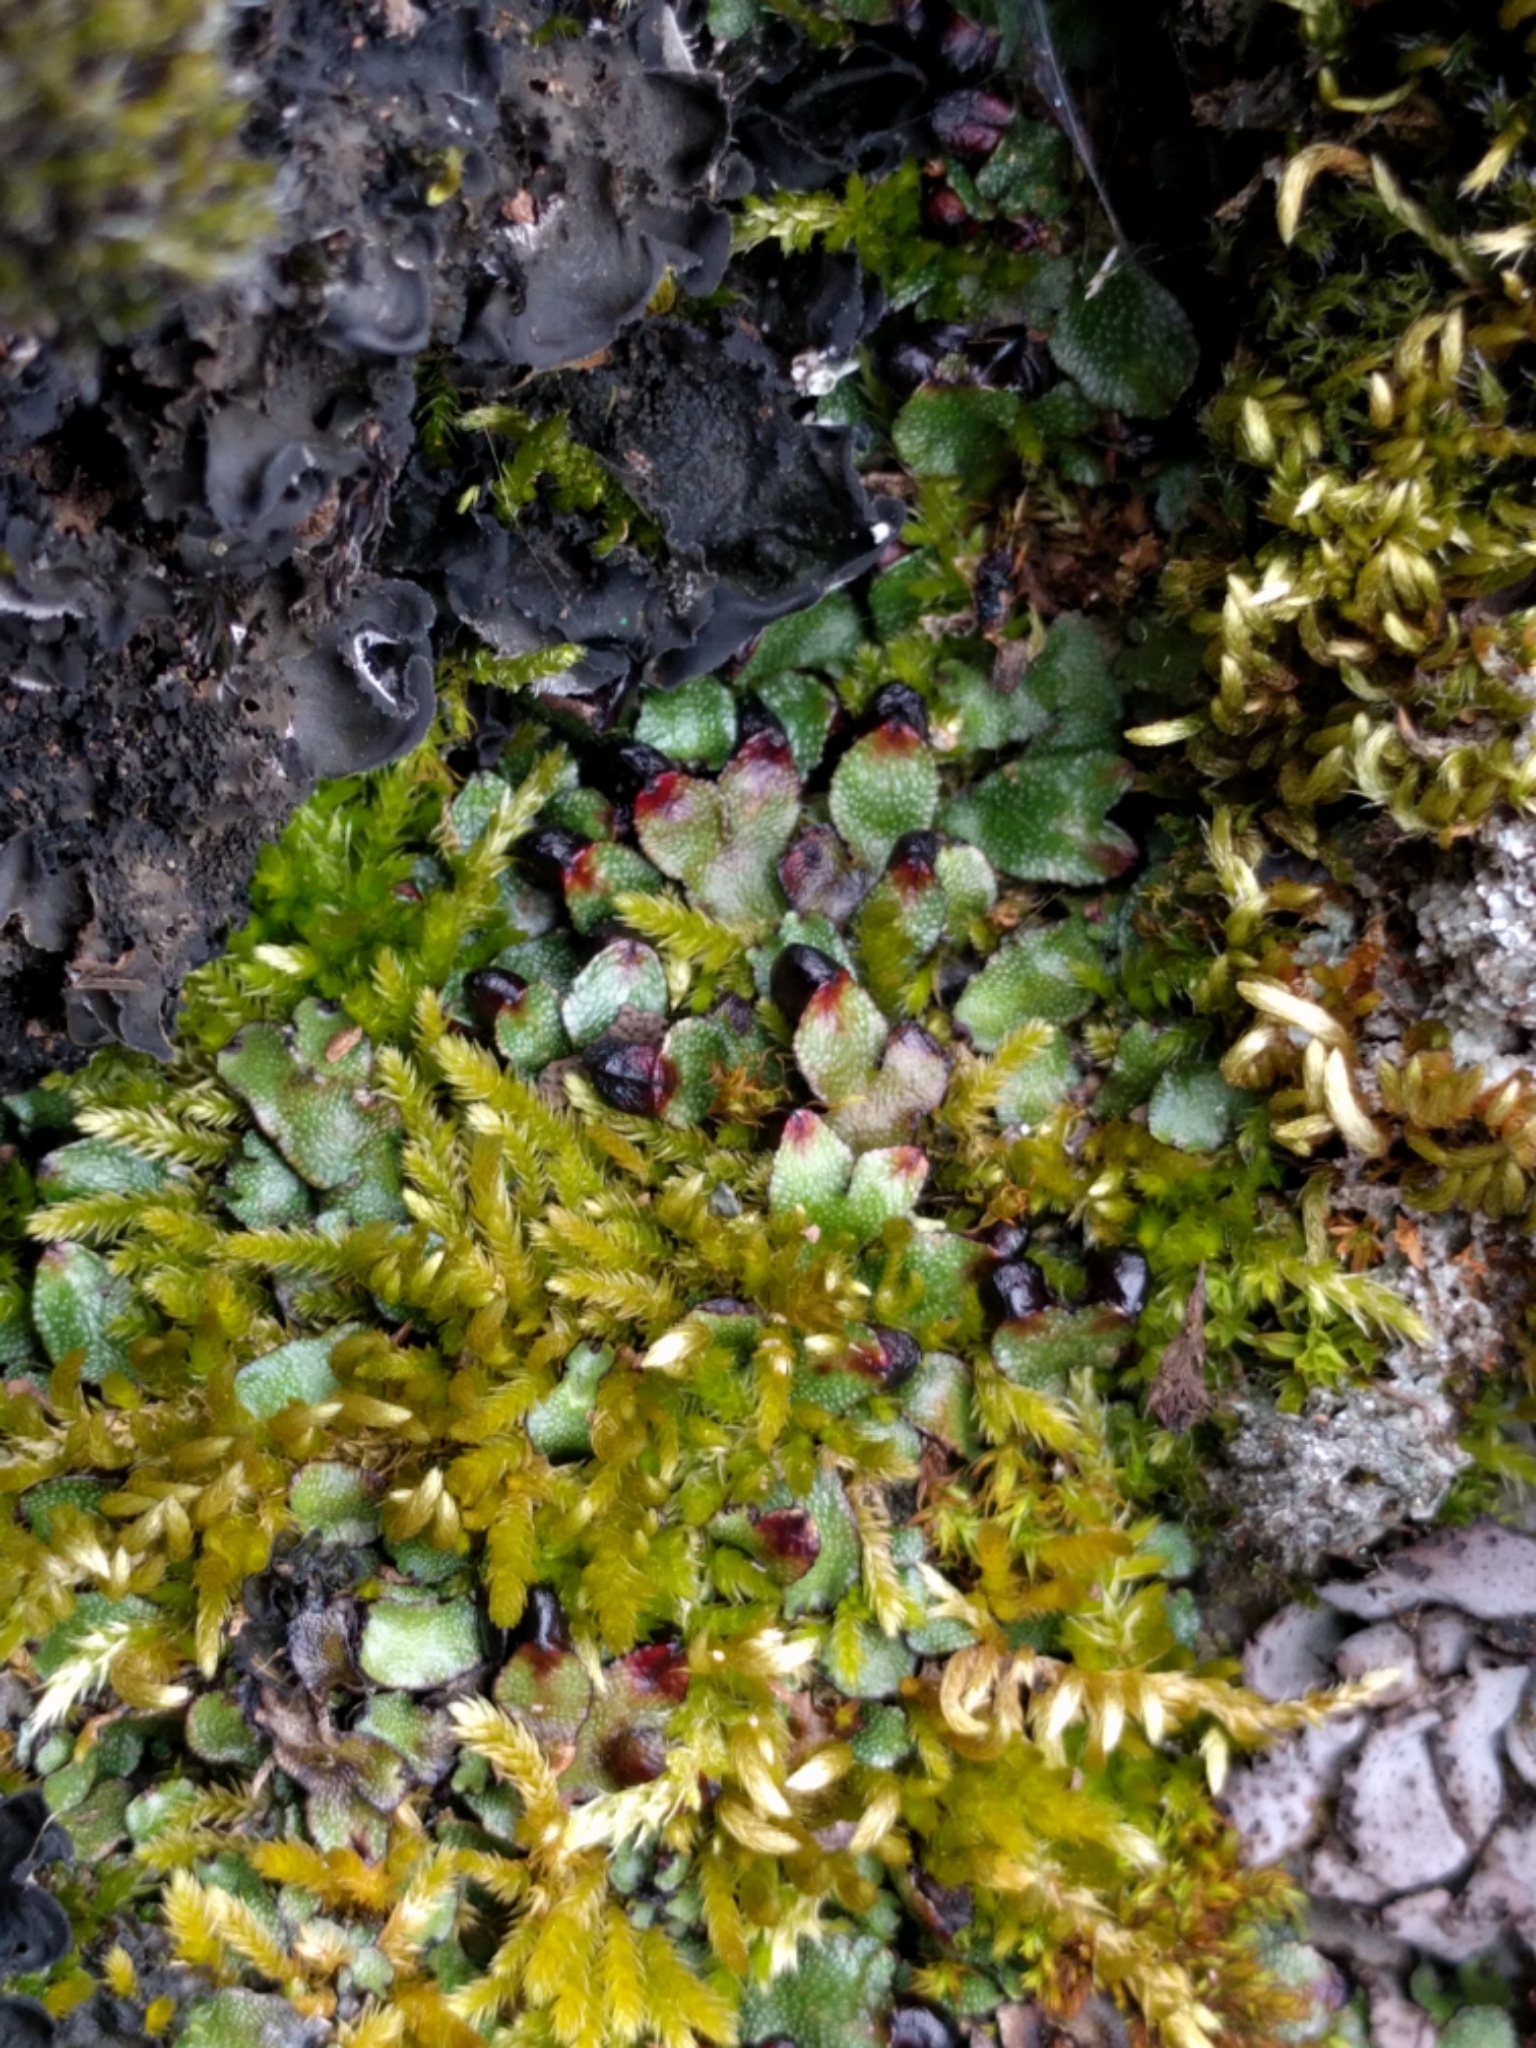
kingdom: Plantae
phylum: Marchantiophyta
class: Marchantiopsida
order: Marchantiales
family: Targioniaceae
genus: Targionia
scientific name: Targionia hypophylla
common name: Orobus-seed liverwort
